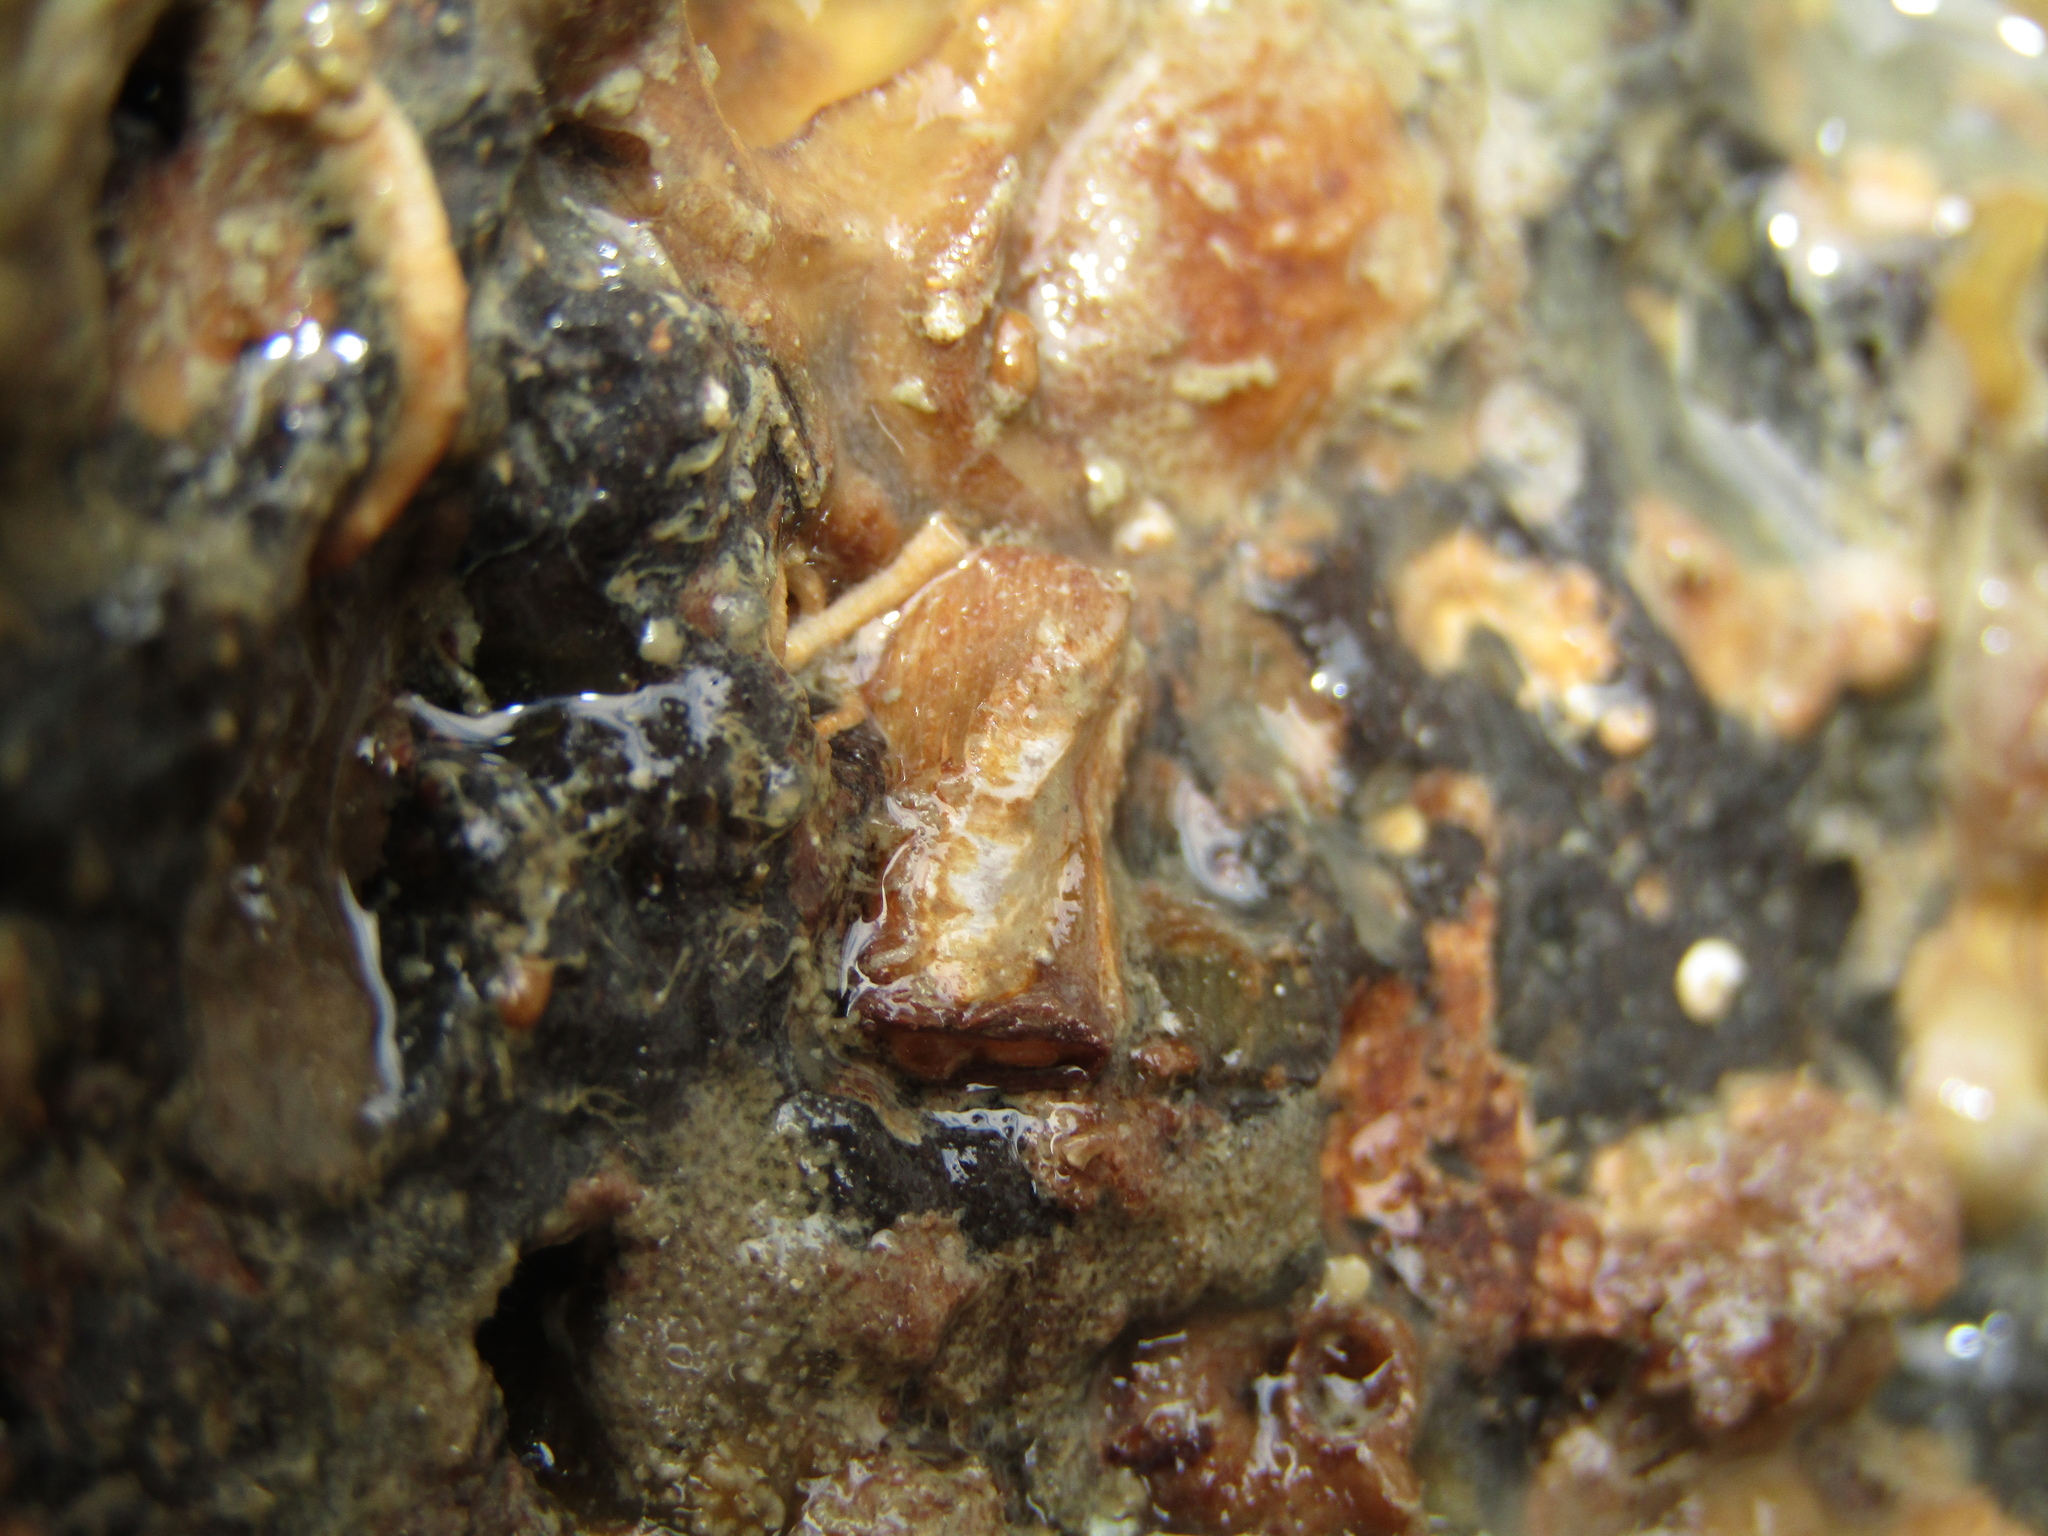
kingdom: Animalia
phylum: Mollusca
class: Bivalvia
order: Adapedonta
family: Hiatellidae
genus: Hiatella
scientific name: Hiatella arctica
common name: Arctic hiatella
